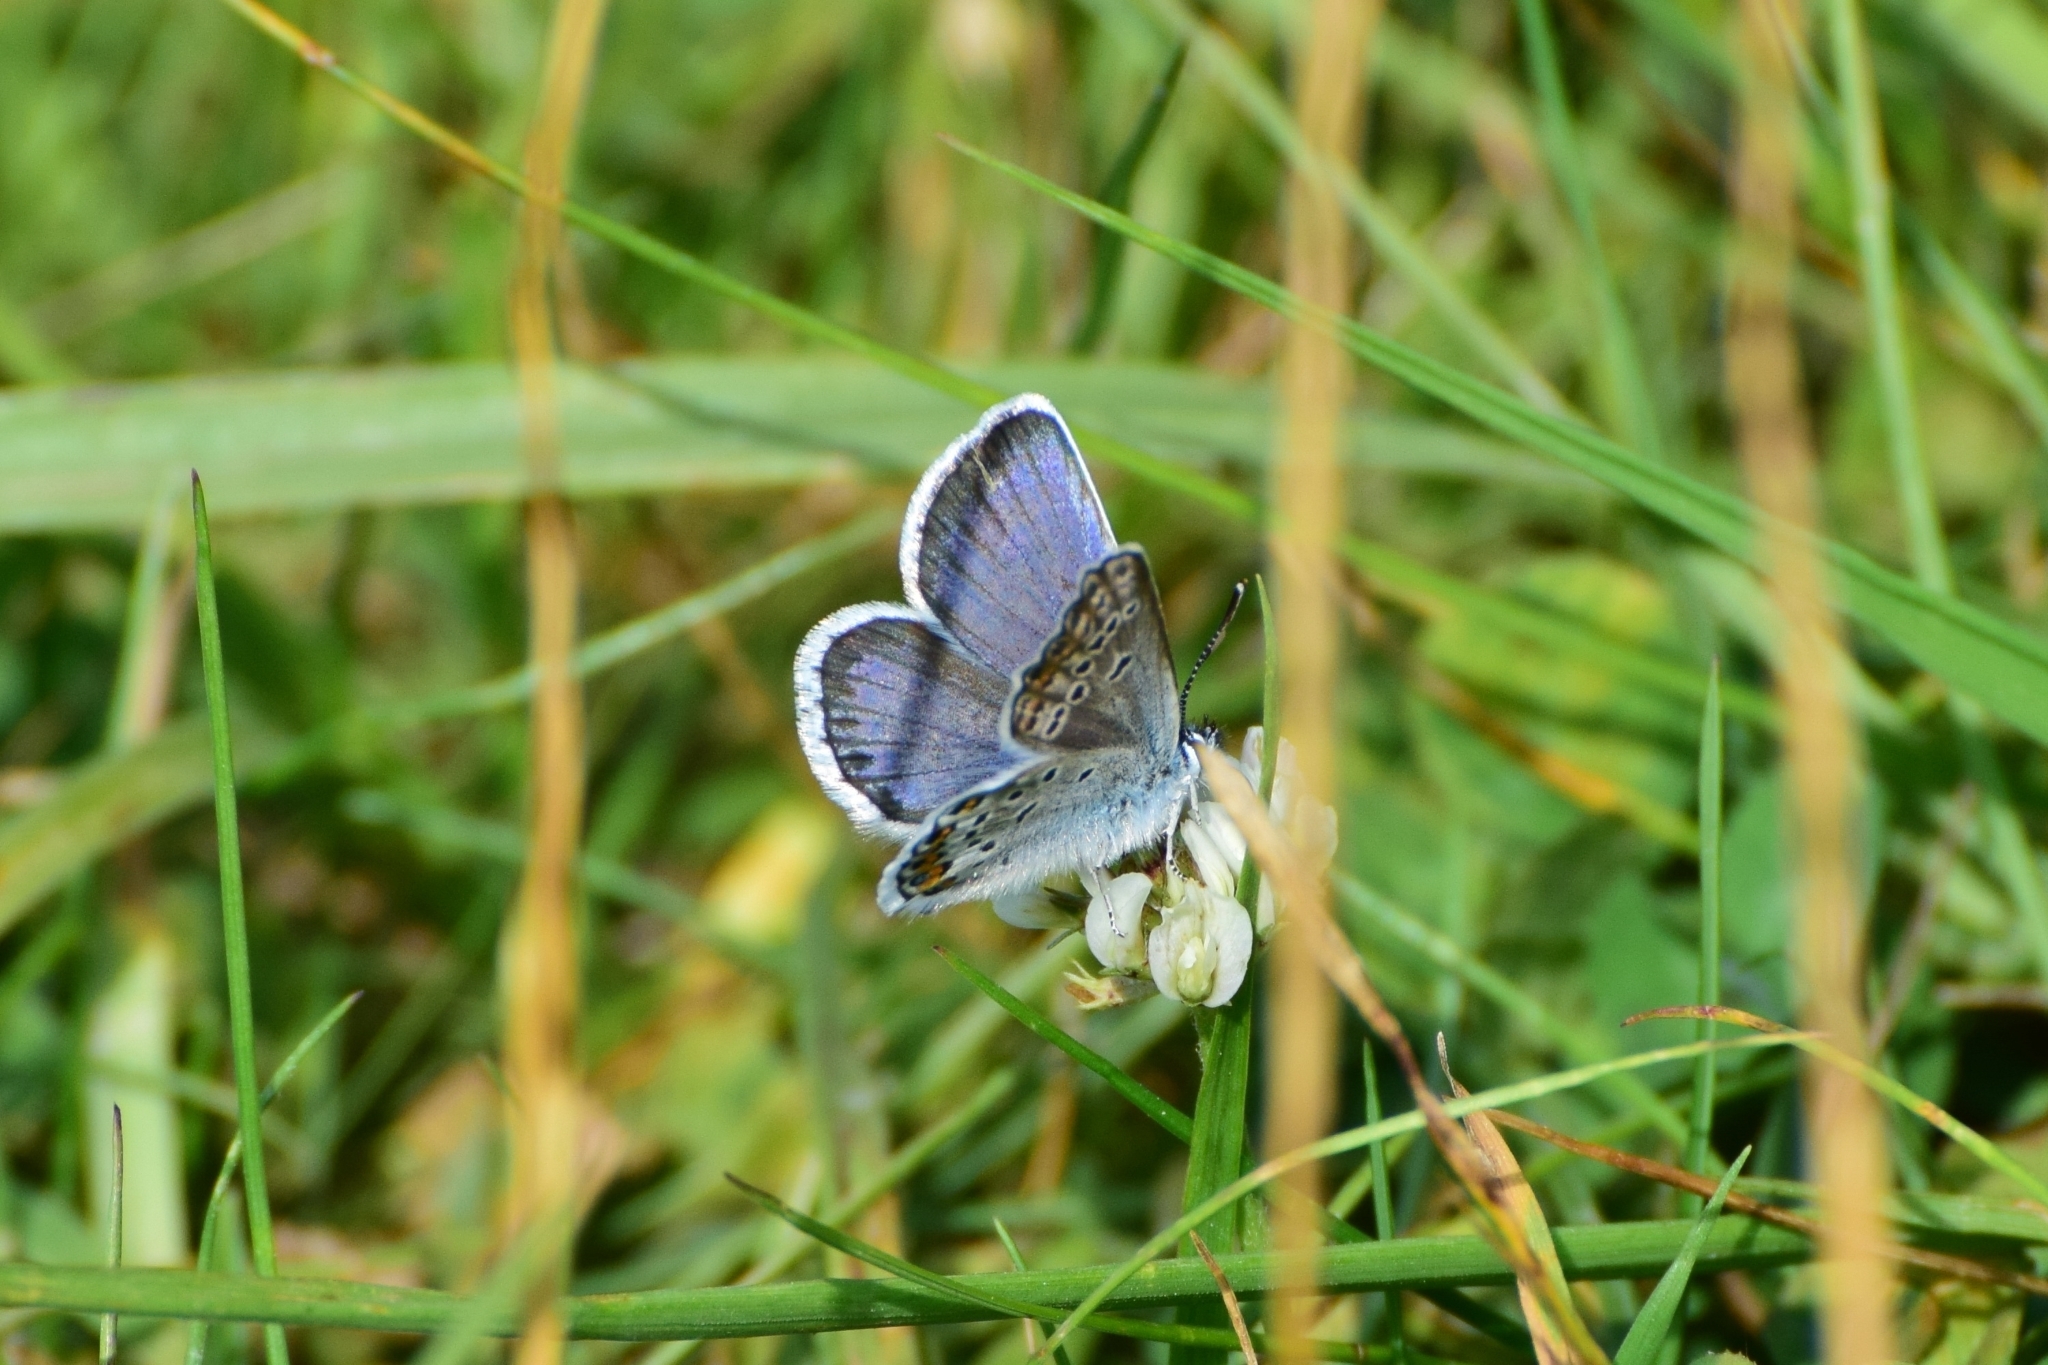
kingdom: Animalia
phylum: Arthropoda
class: Insecta
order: Lepidoptera
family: Lycaenidae
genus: Plebejus
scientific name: Plebejus argus
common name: Silver-studded blue
